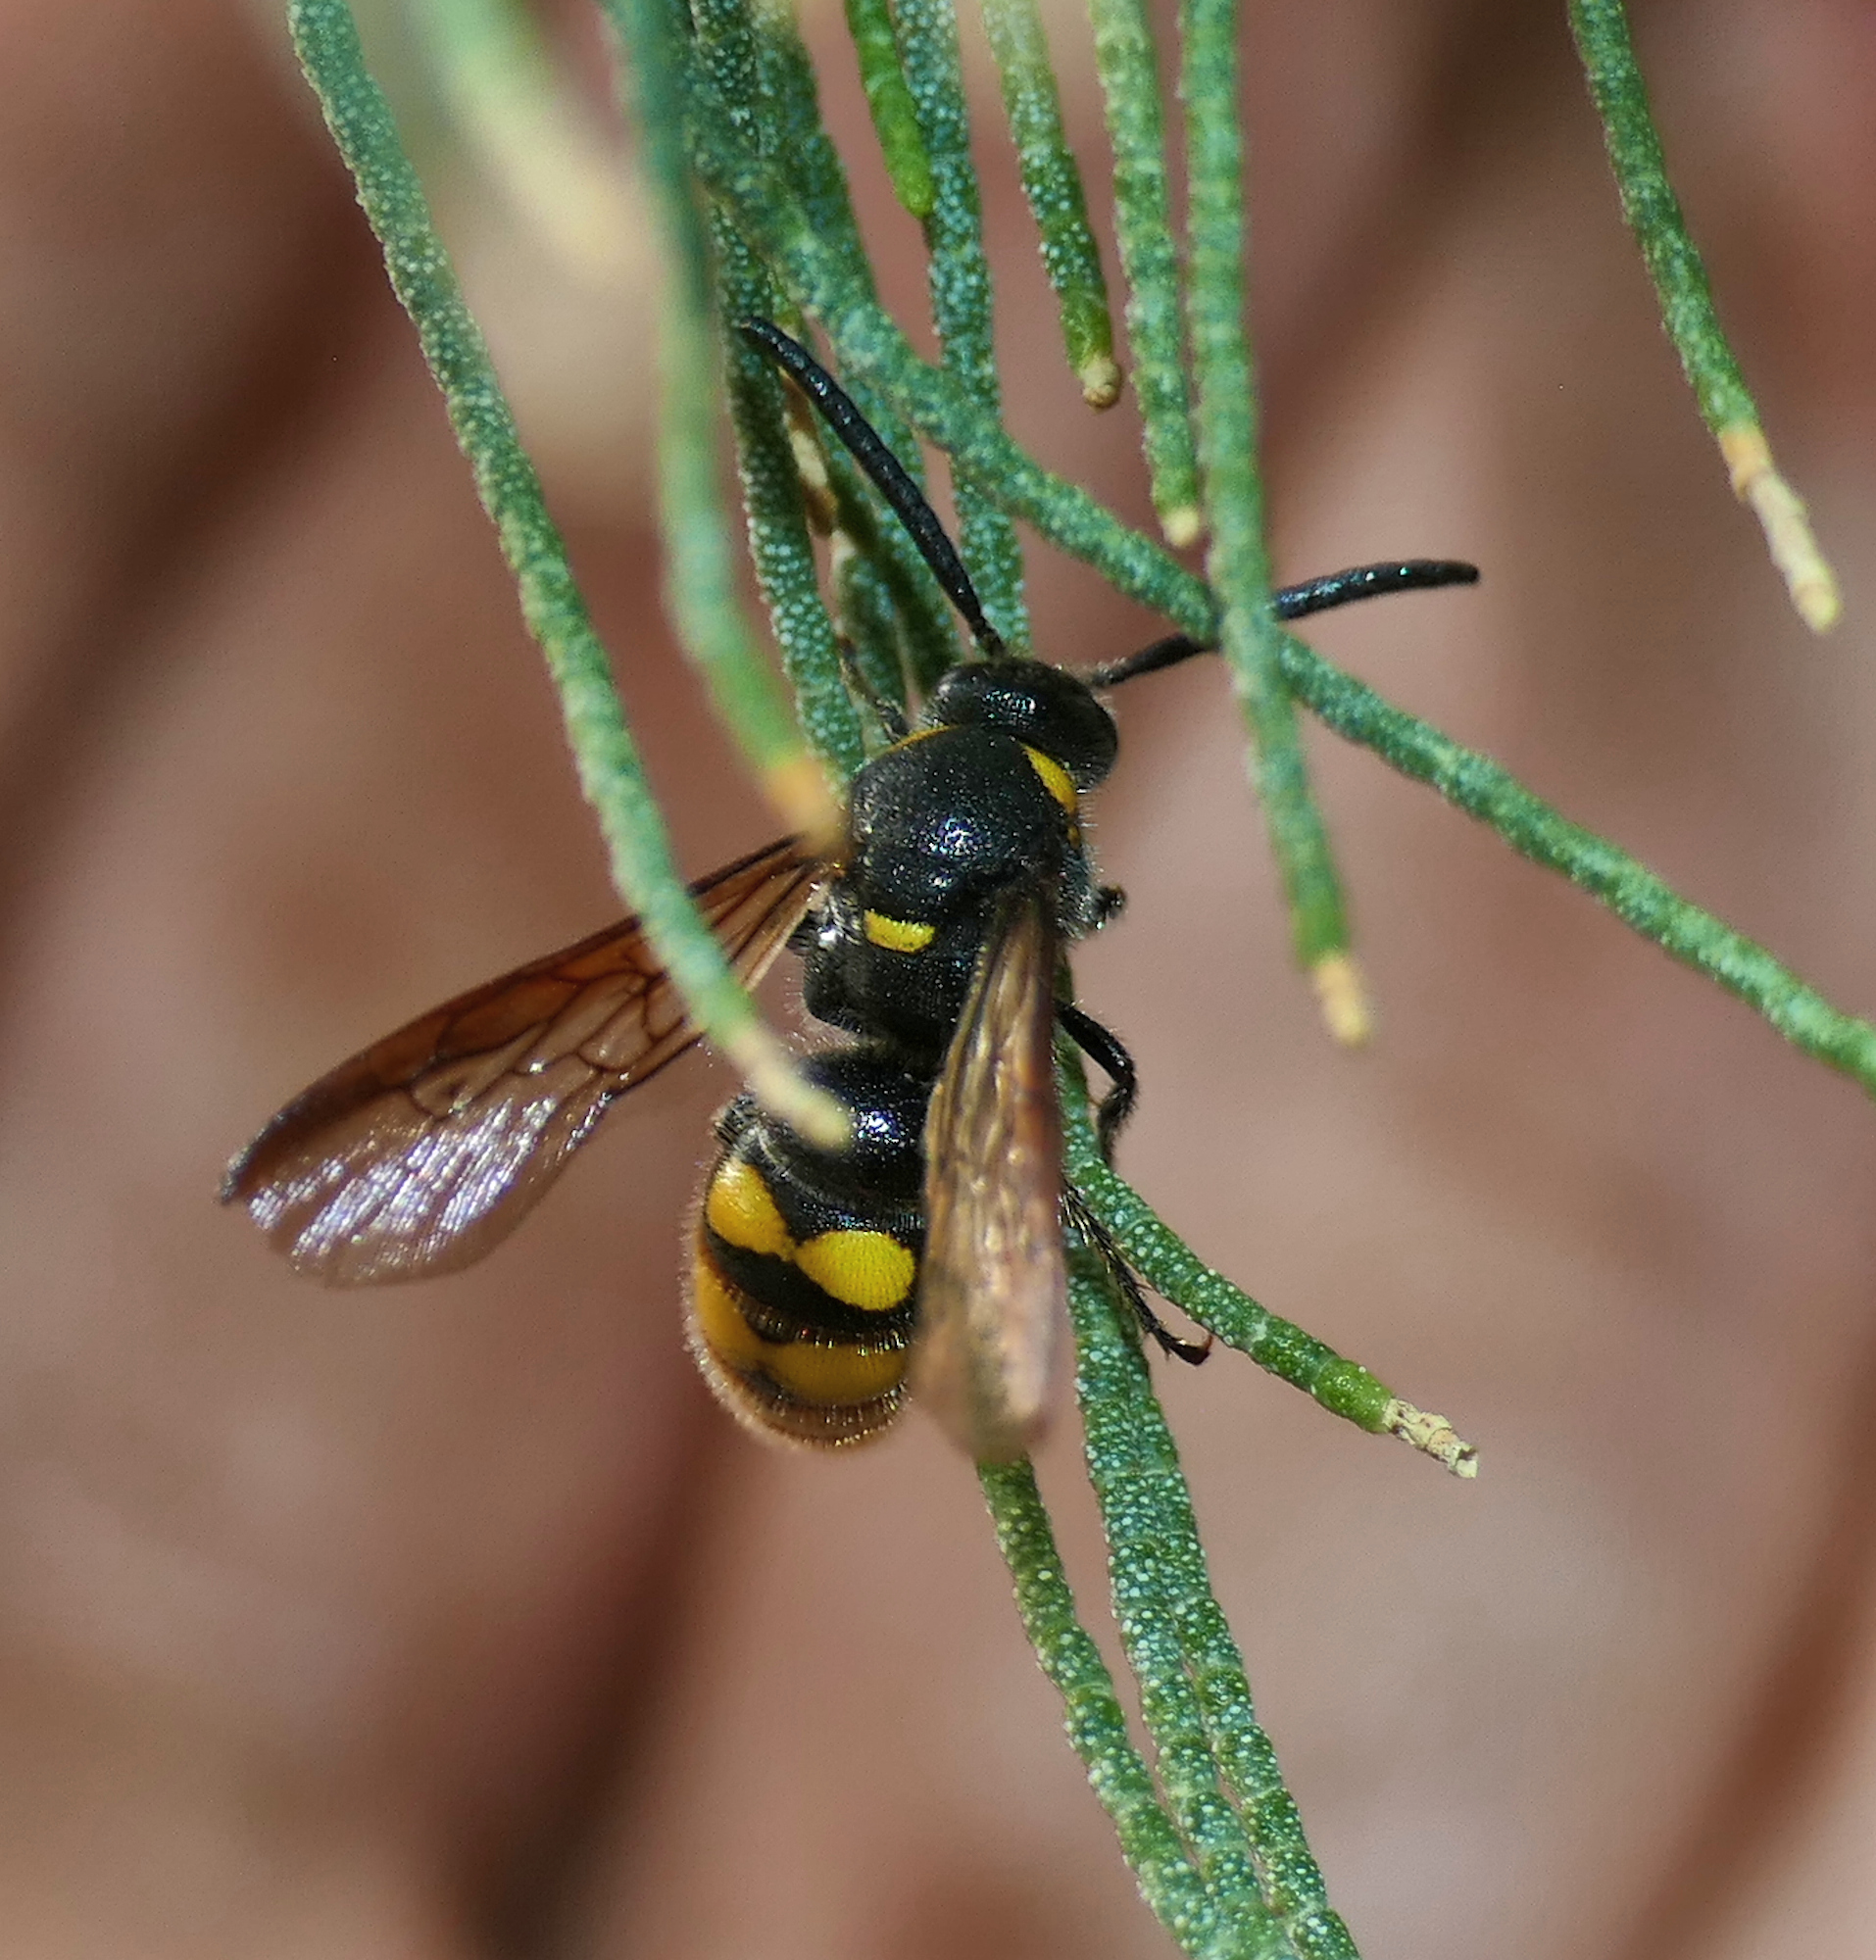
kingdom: Animalia
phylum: Arthropoda
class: Insecta
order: Hymenoptera
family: Scoliidae
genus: Scolia
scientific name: Scolia nobilitata
